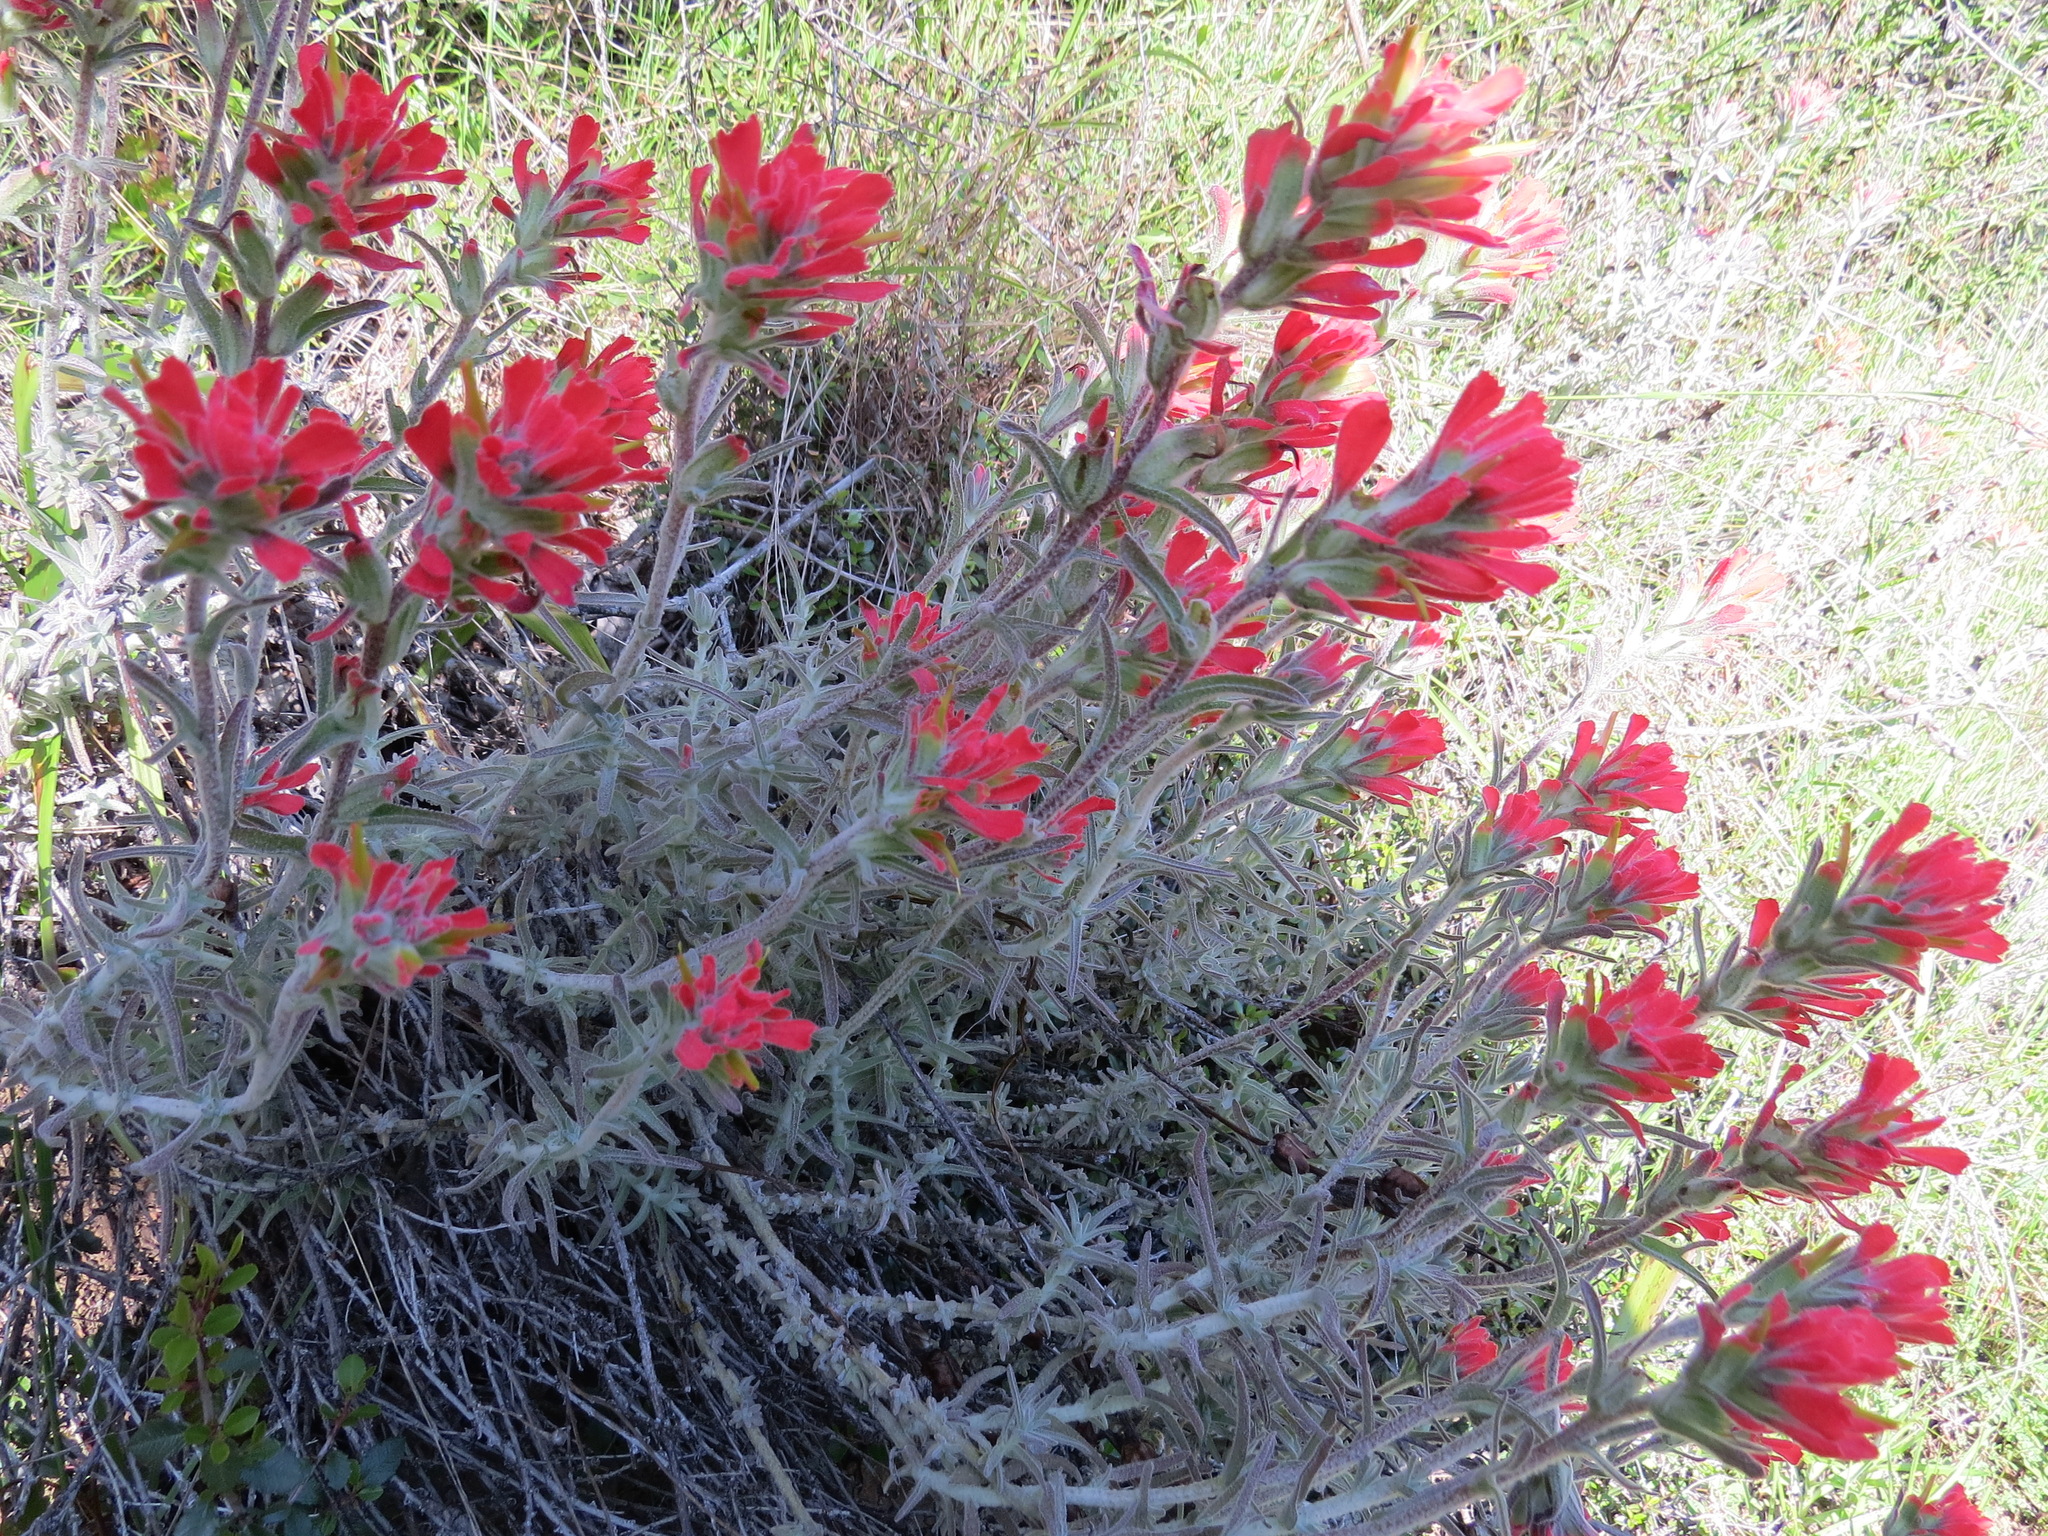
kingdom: Plantae
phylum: Tracheophyta
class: Magnoliopsida
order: Lamiales
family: Orobanchaceae
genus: Castilleja
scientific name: Castilleja foliolosa
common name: Woolly indian paintbrush
